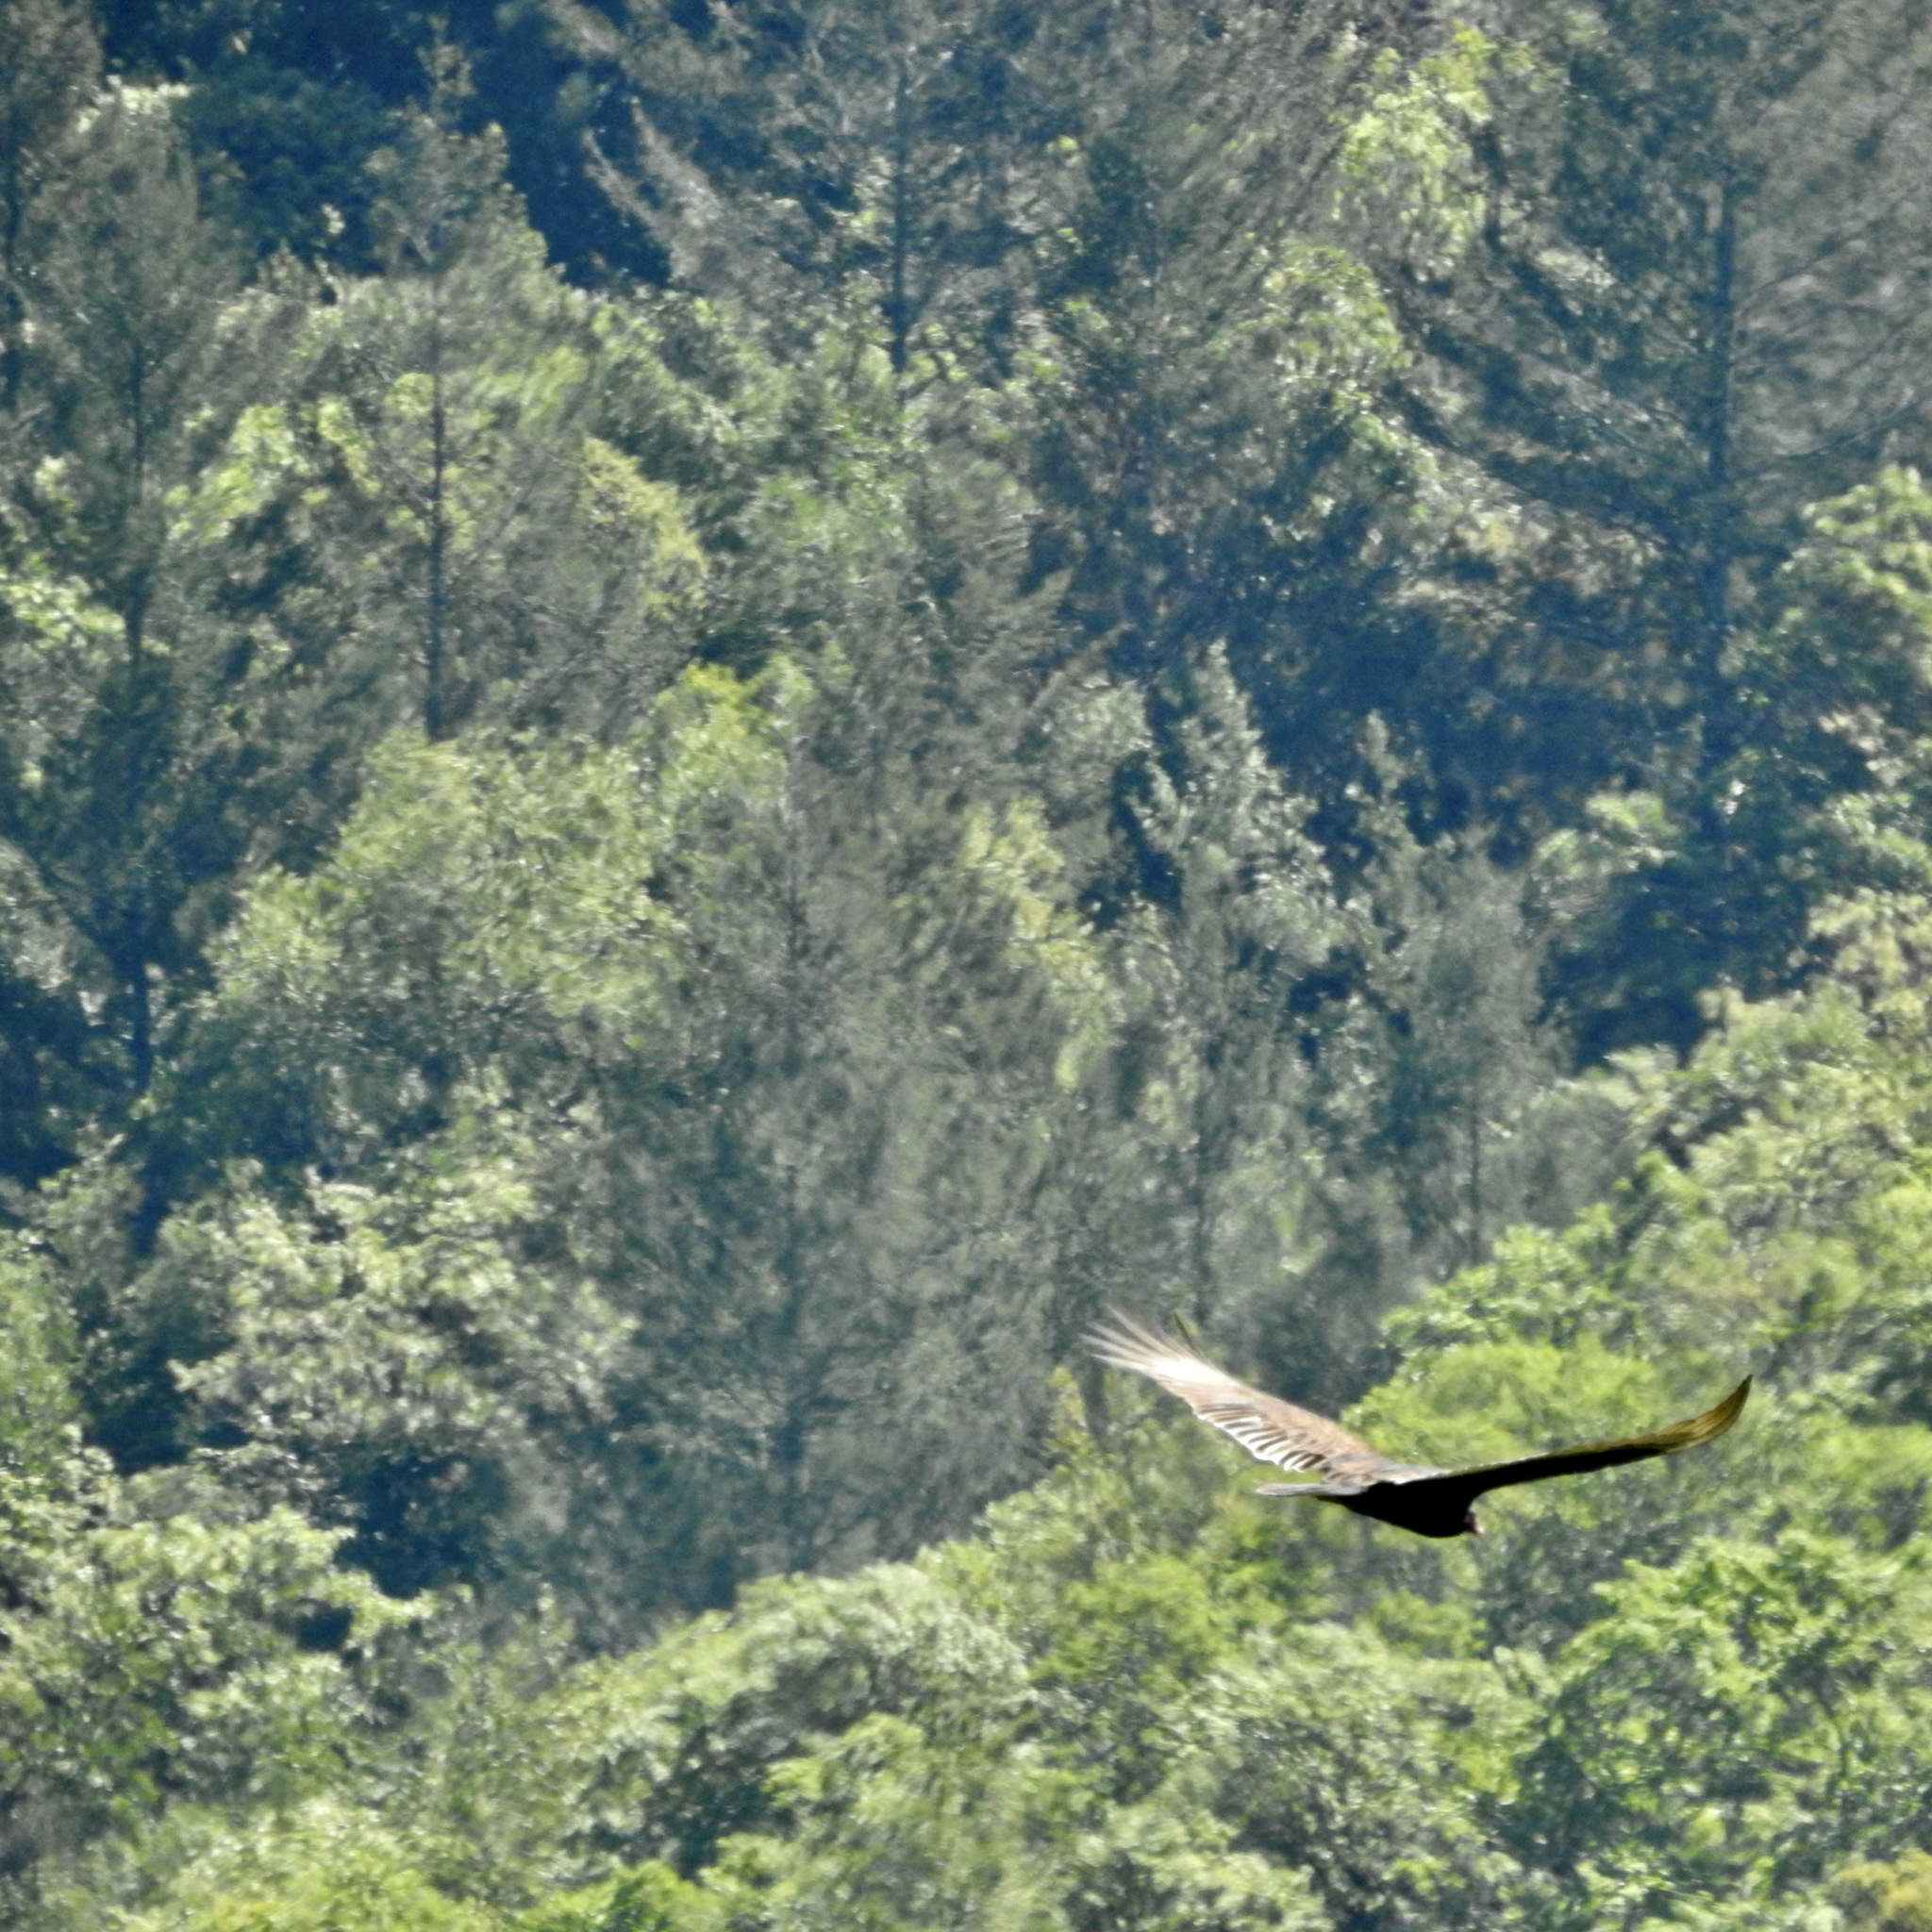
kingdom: Animalia
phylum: Chordata
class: Aves
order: Accipitriformes
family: Cathartidae
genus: Cathartes
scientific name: Cathartes aura
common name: Turkey vulture
